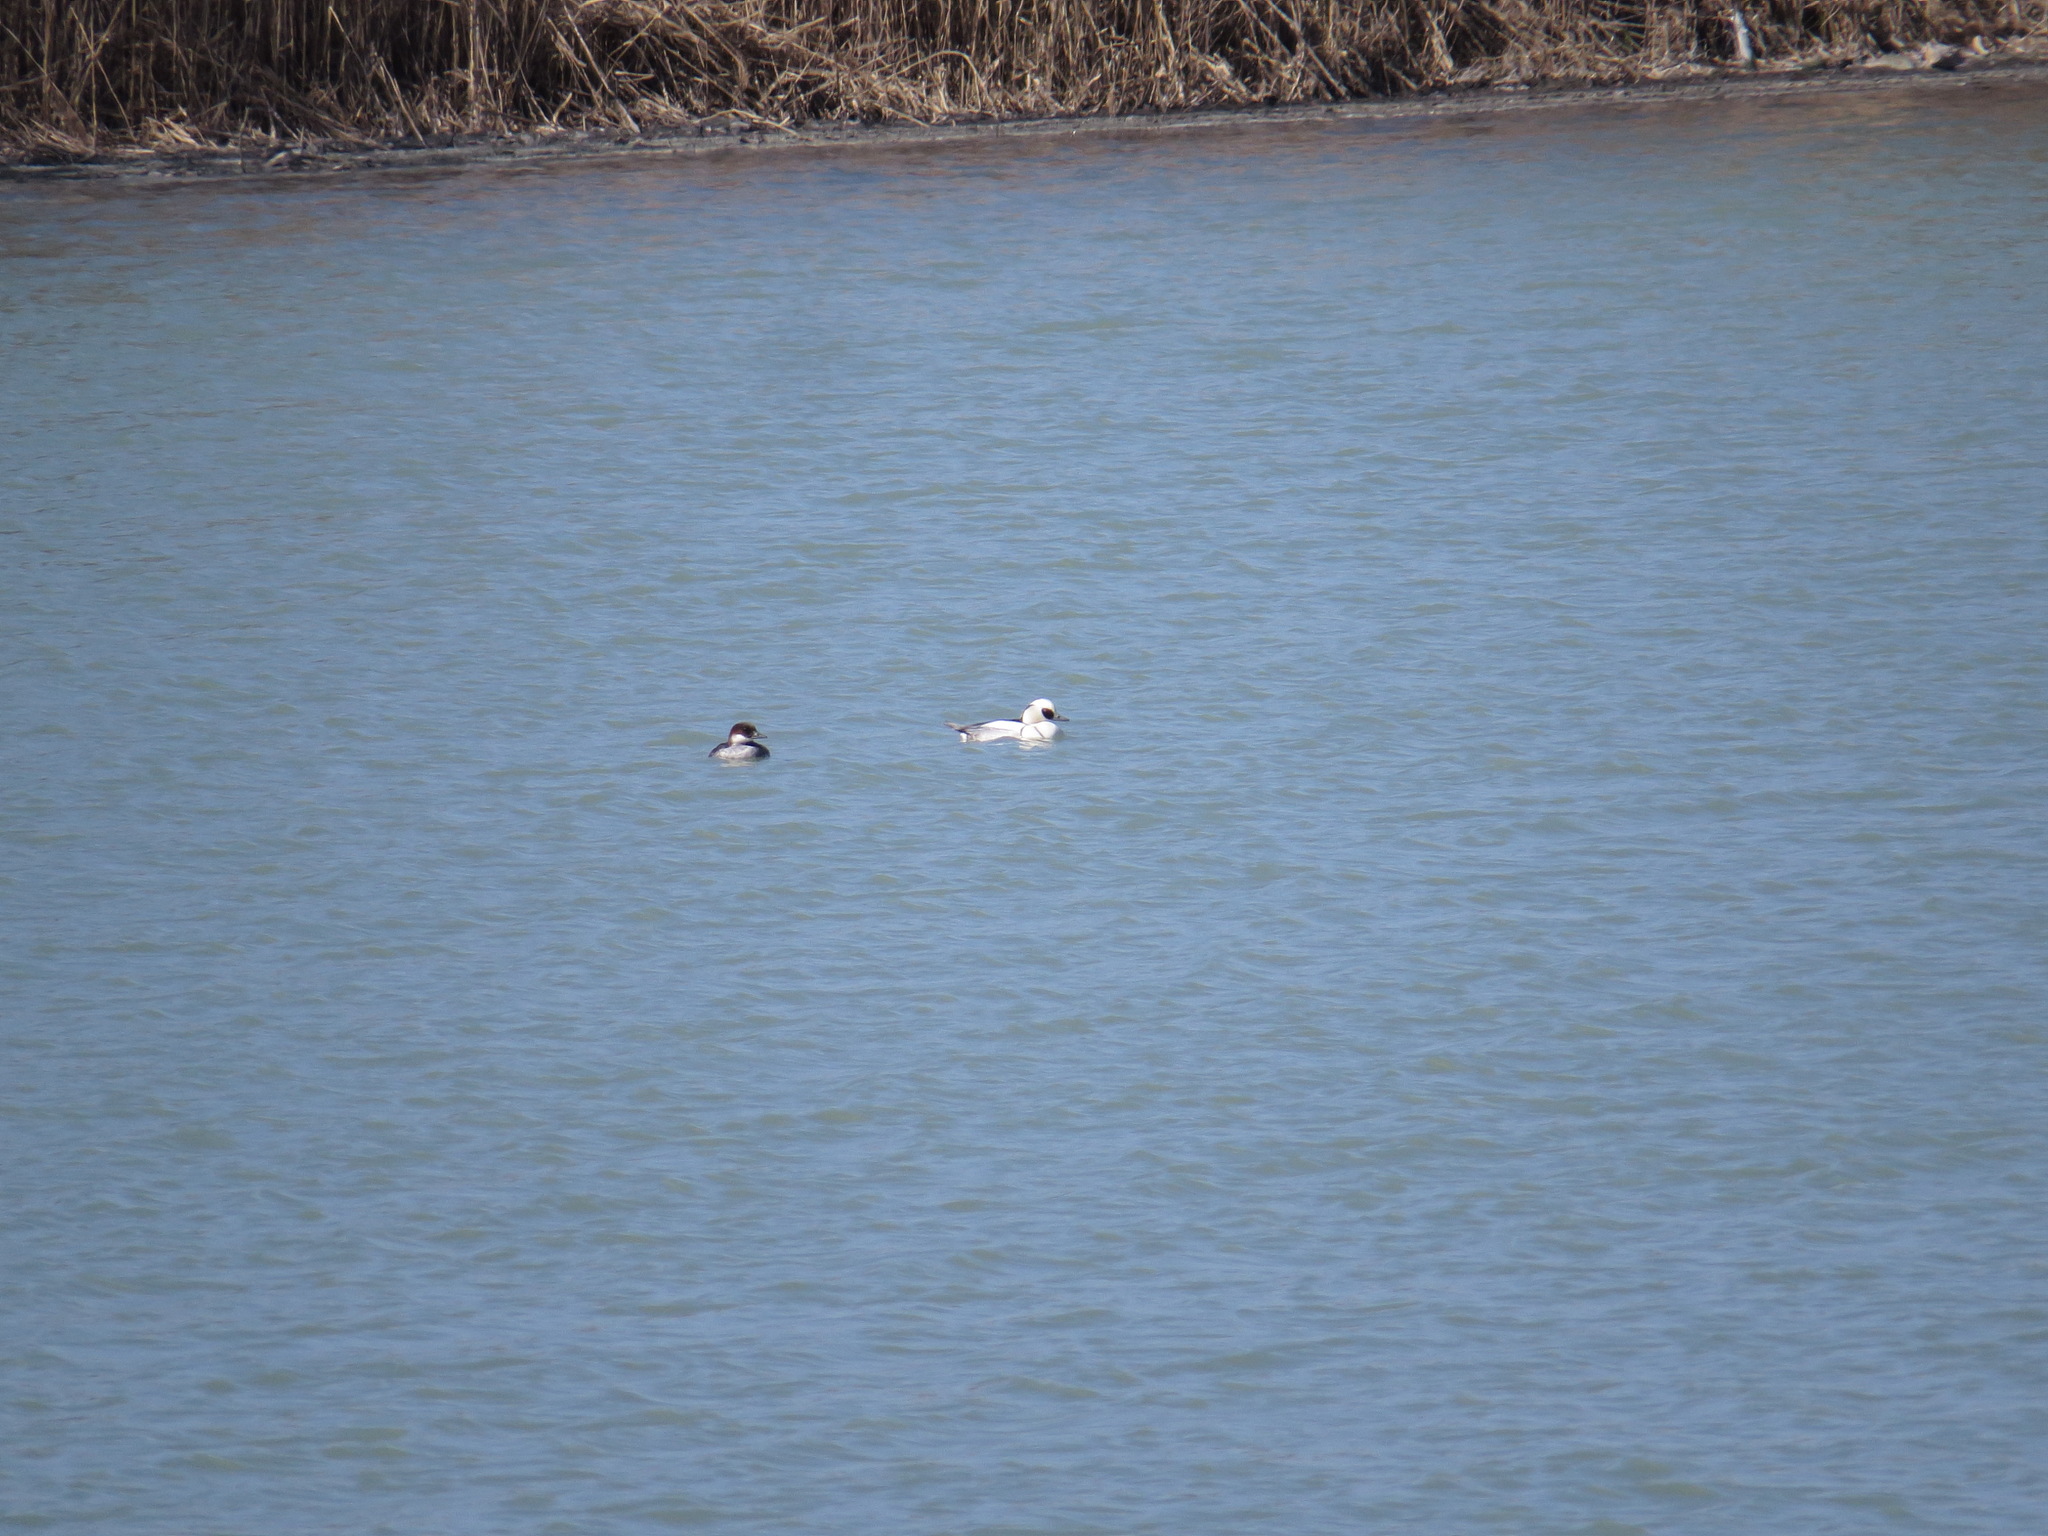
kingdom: Animalia
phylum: Chordata
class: Aves
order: Anseriformes
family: Anatidae
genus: Mergellus
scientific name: Mergellus albellus
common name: Smew
